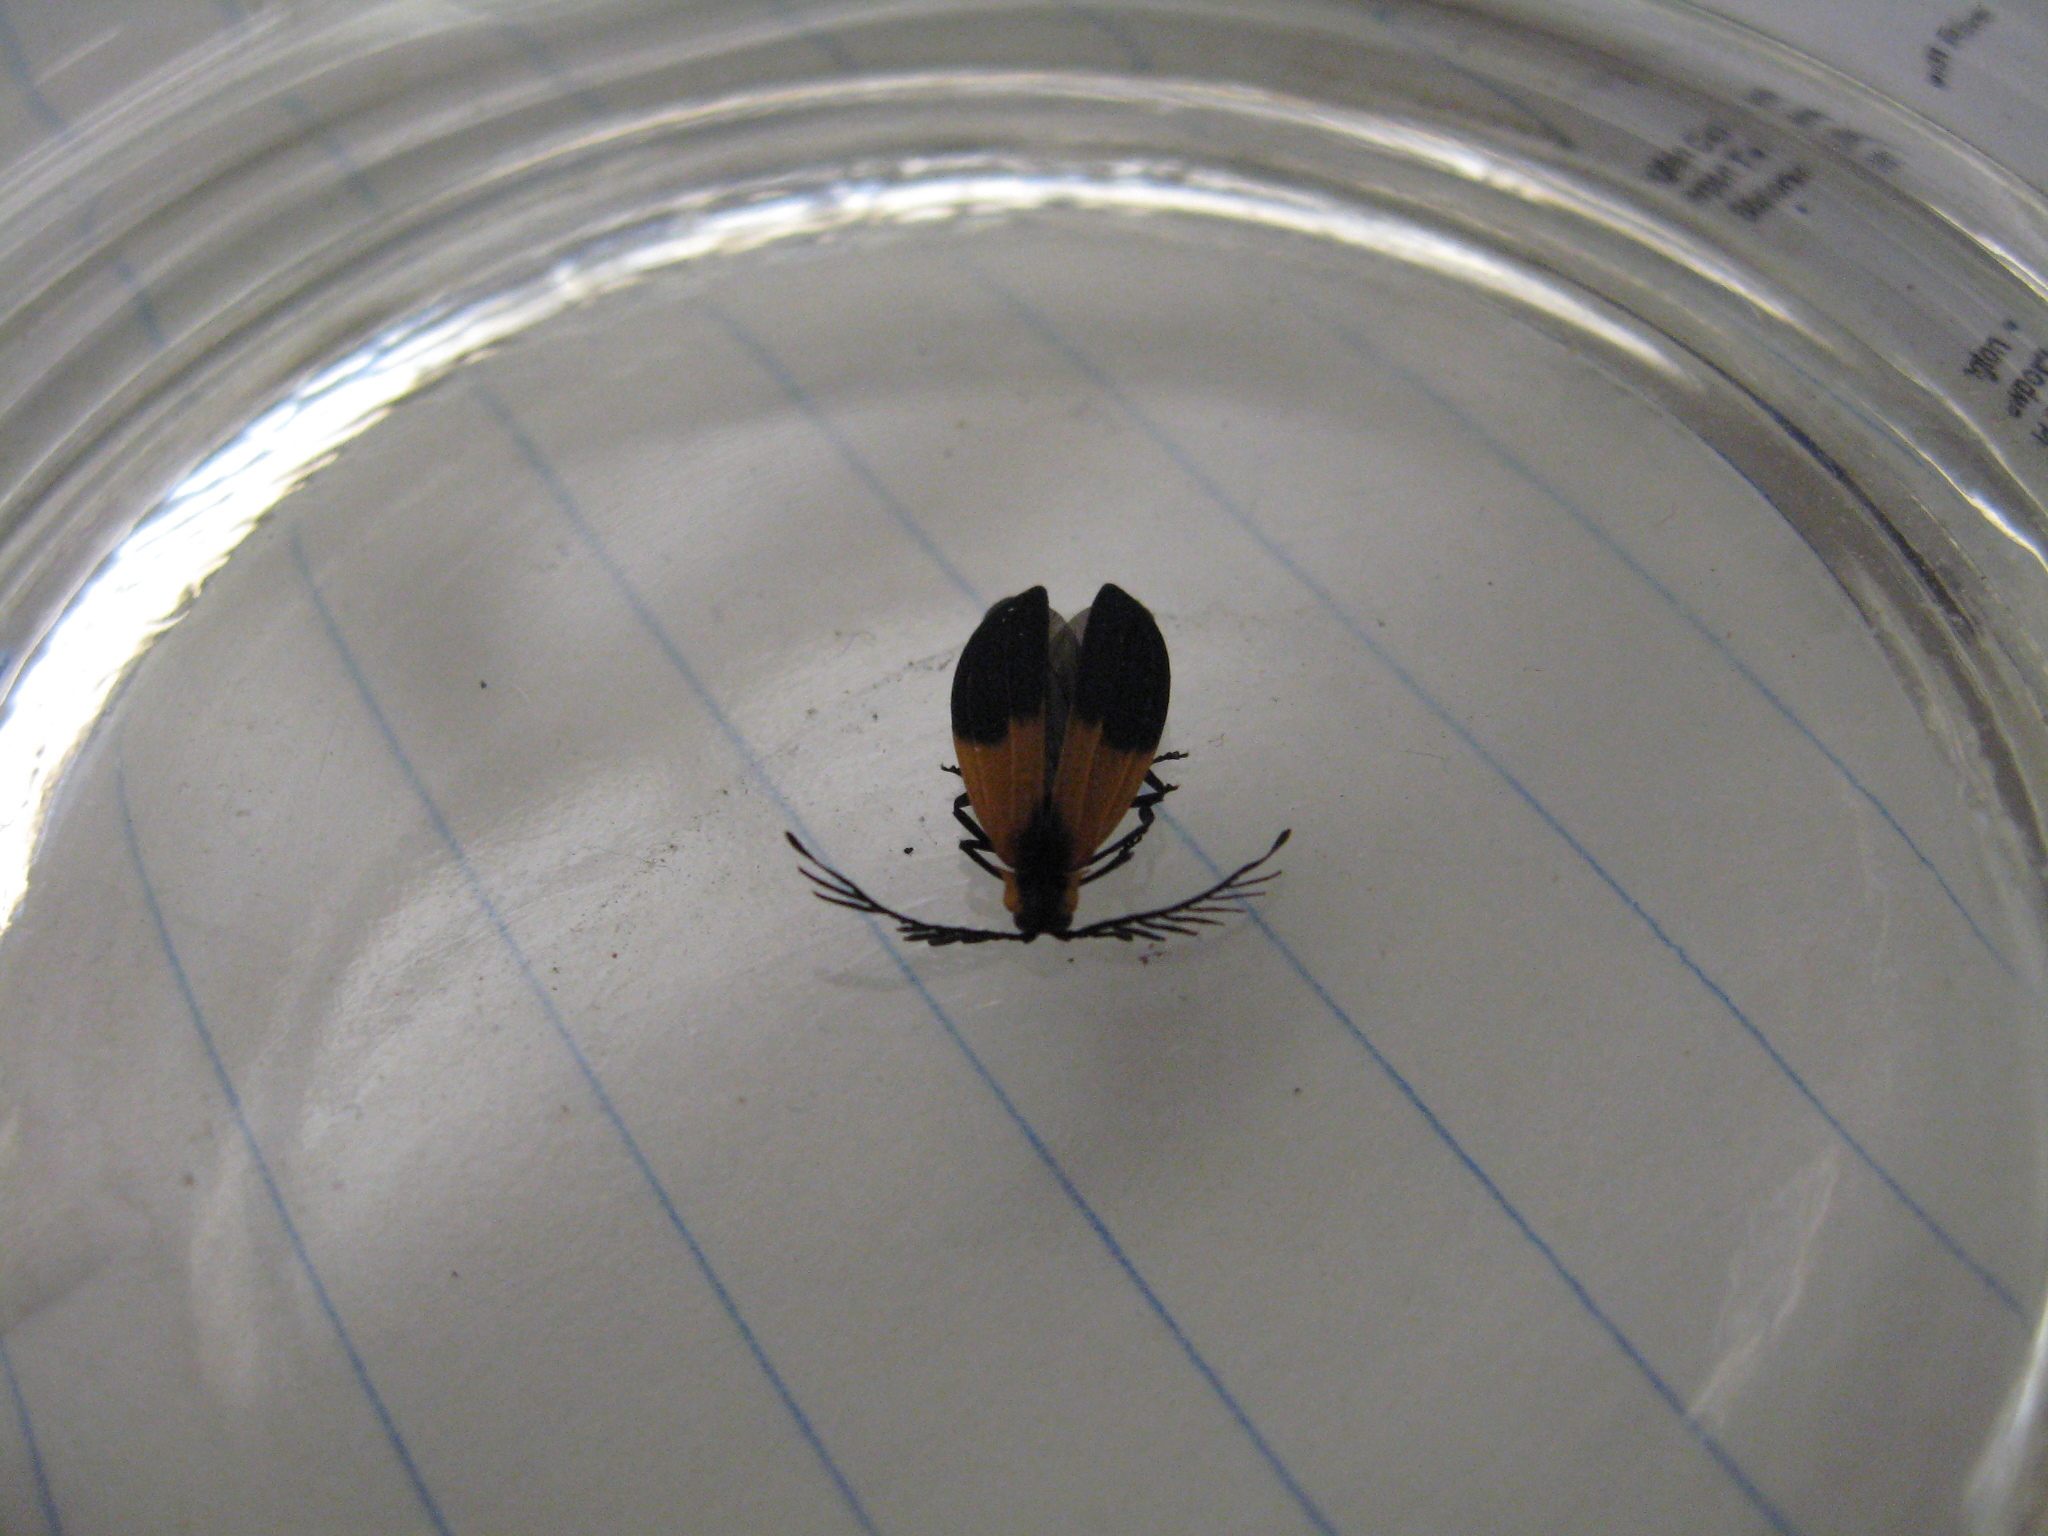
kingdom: Animalia
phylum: Arthropoda
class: Insecta
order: Coleoptera
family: Lycidae
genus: Caenia
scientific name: Caenia dimidiata
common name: Terminal net-winged beetle
